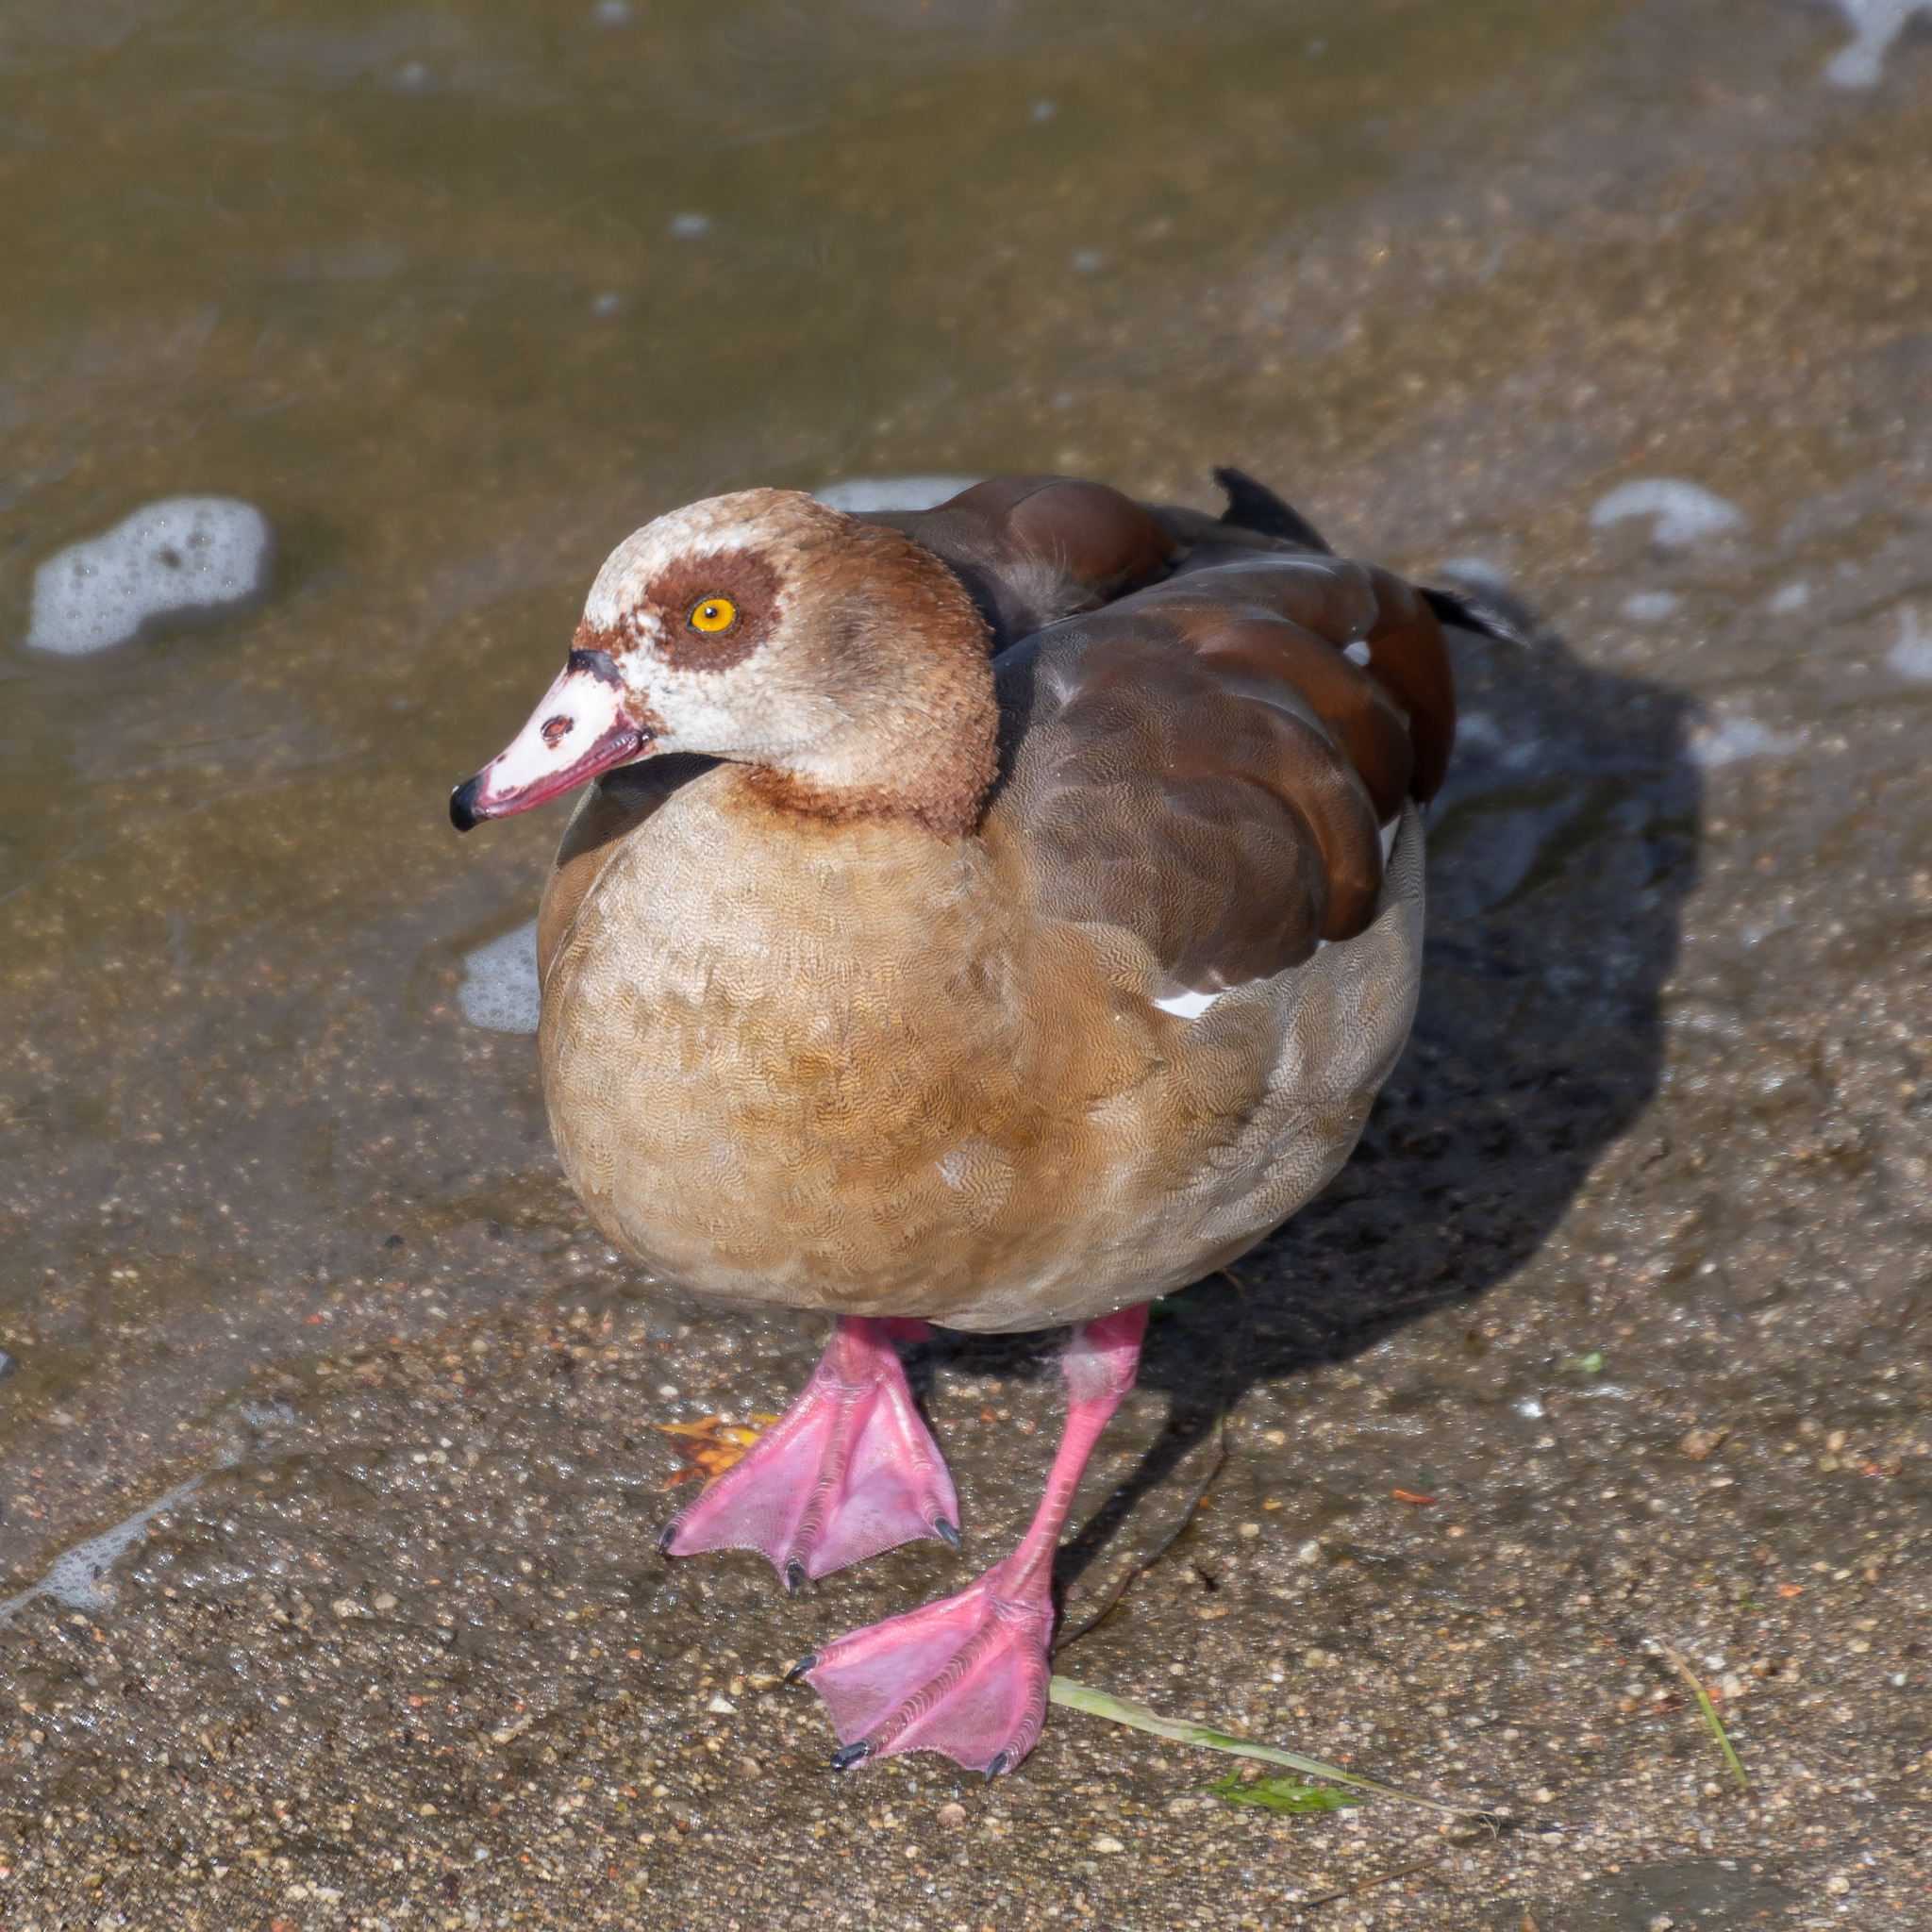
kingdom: Animalia
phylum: Chordata
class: Aves
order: Anseriformes
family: Anatidae
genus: Alopochen
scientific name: Alopochen aegyptiaca
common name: Egyptian goose
